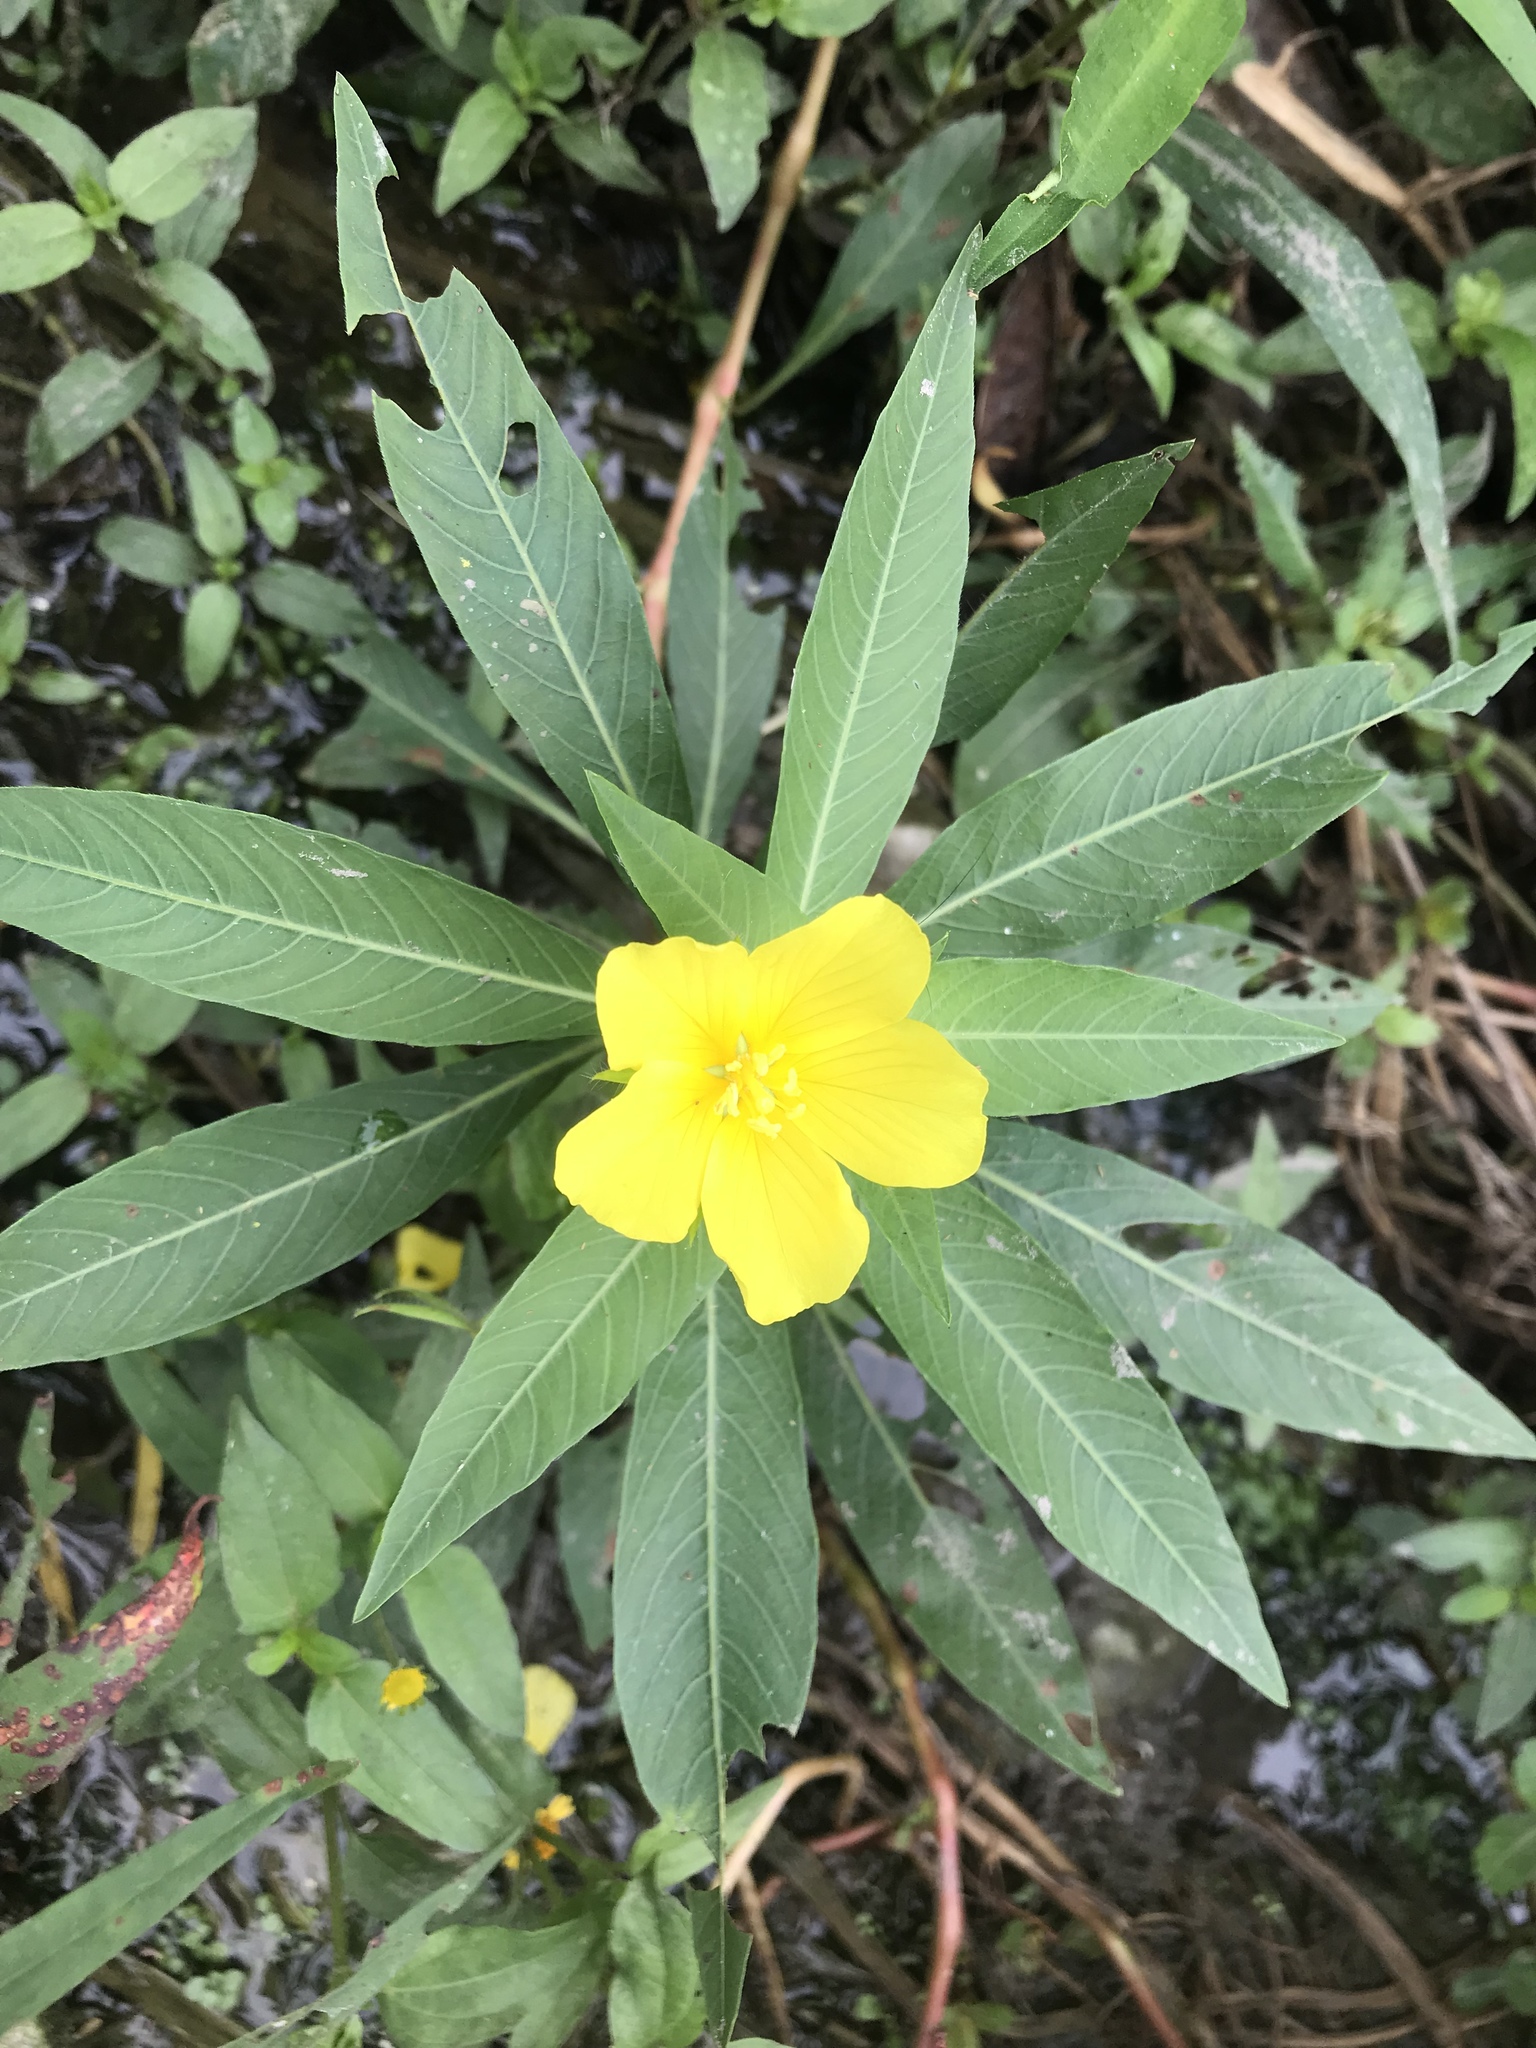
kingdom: Plantae
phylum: Tracheophyta
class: Magnoliopsida
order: Myrtales
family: Onagraceae
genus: Ludwigia
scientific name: Ludwigia peploides
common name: Floating primrose-willow
